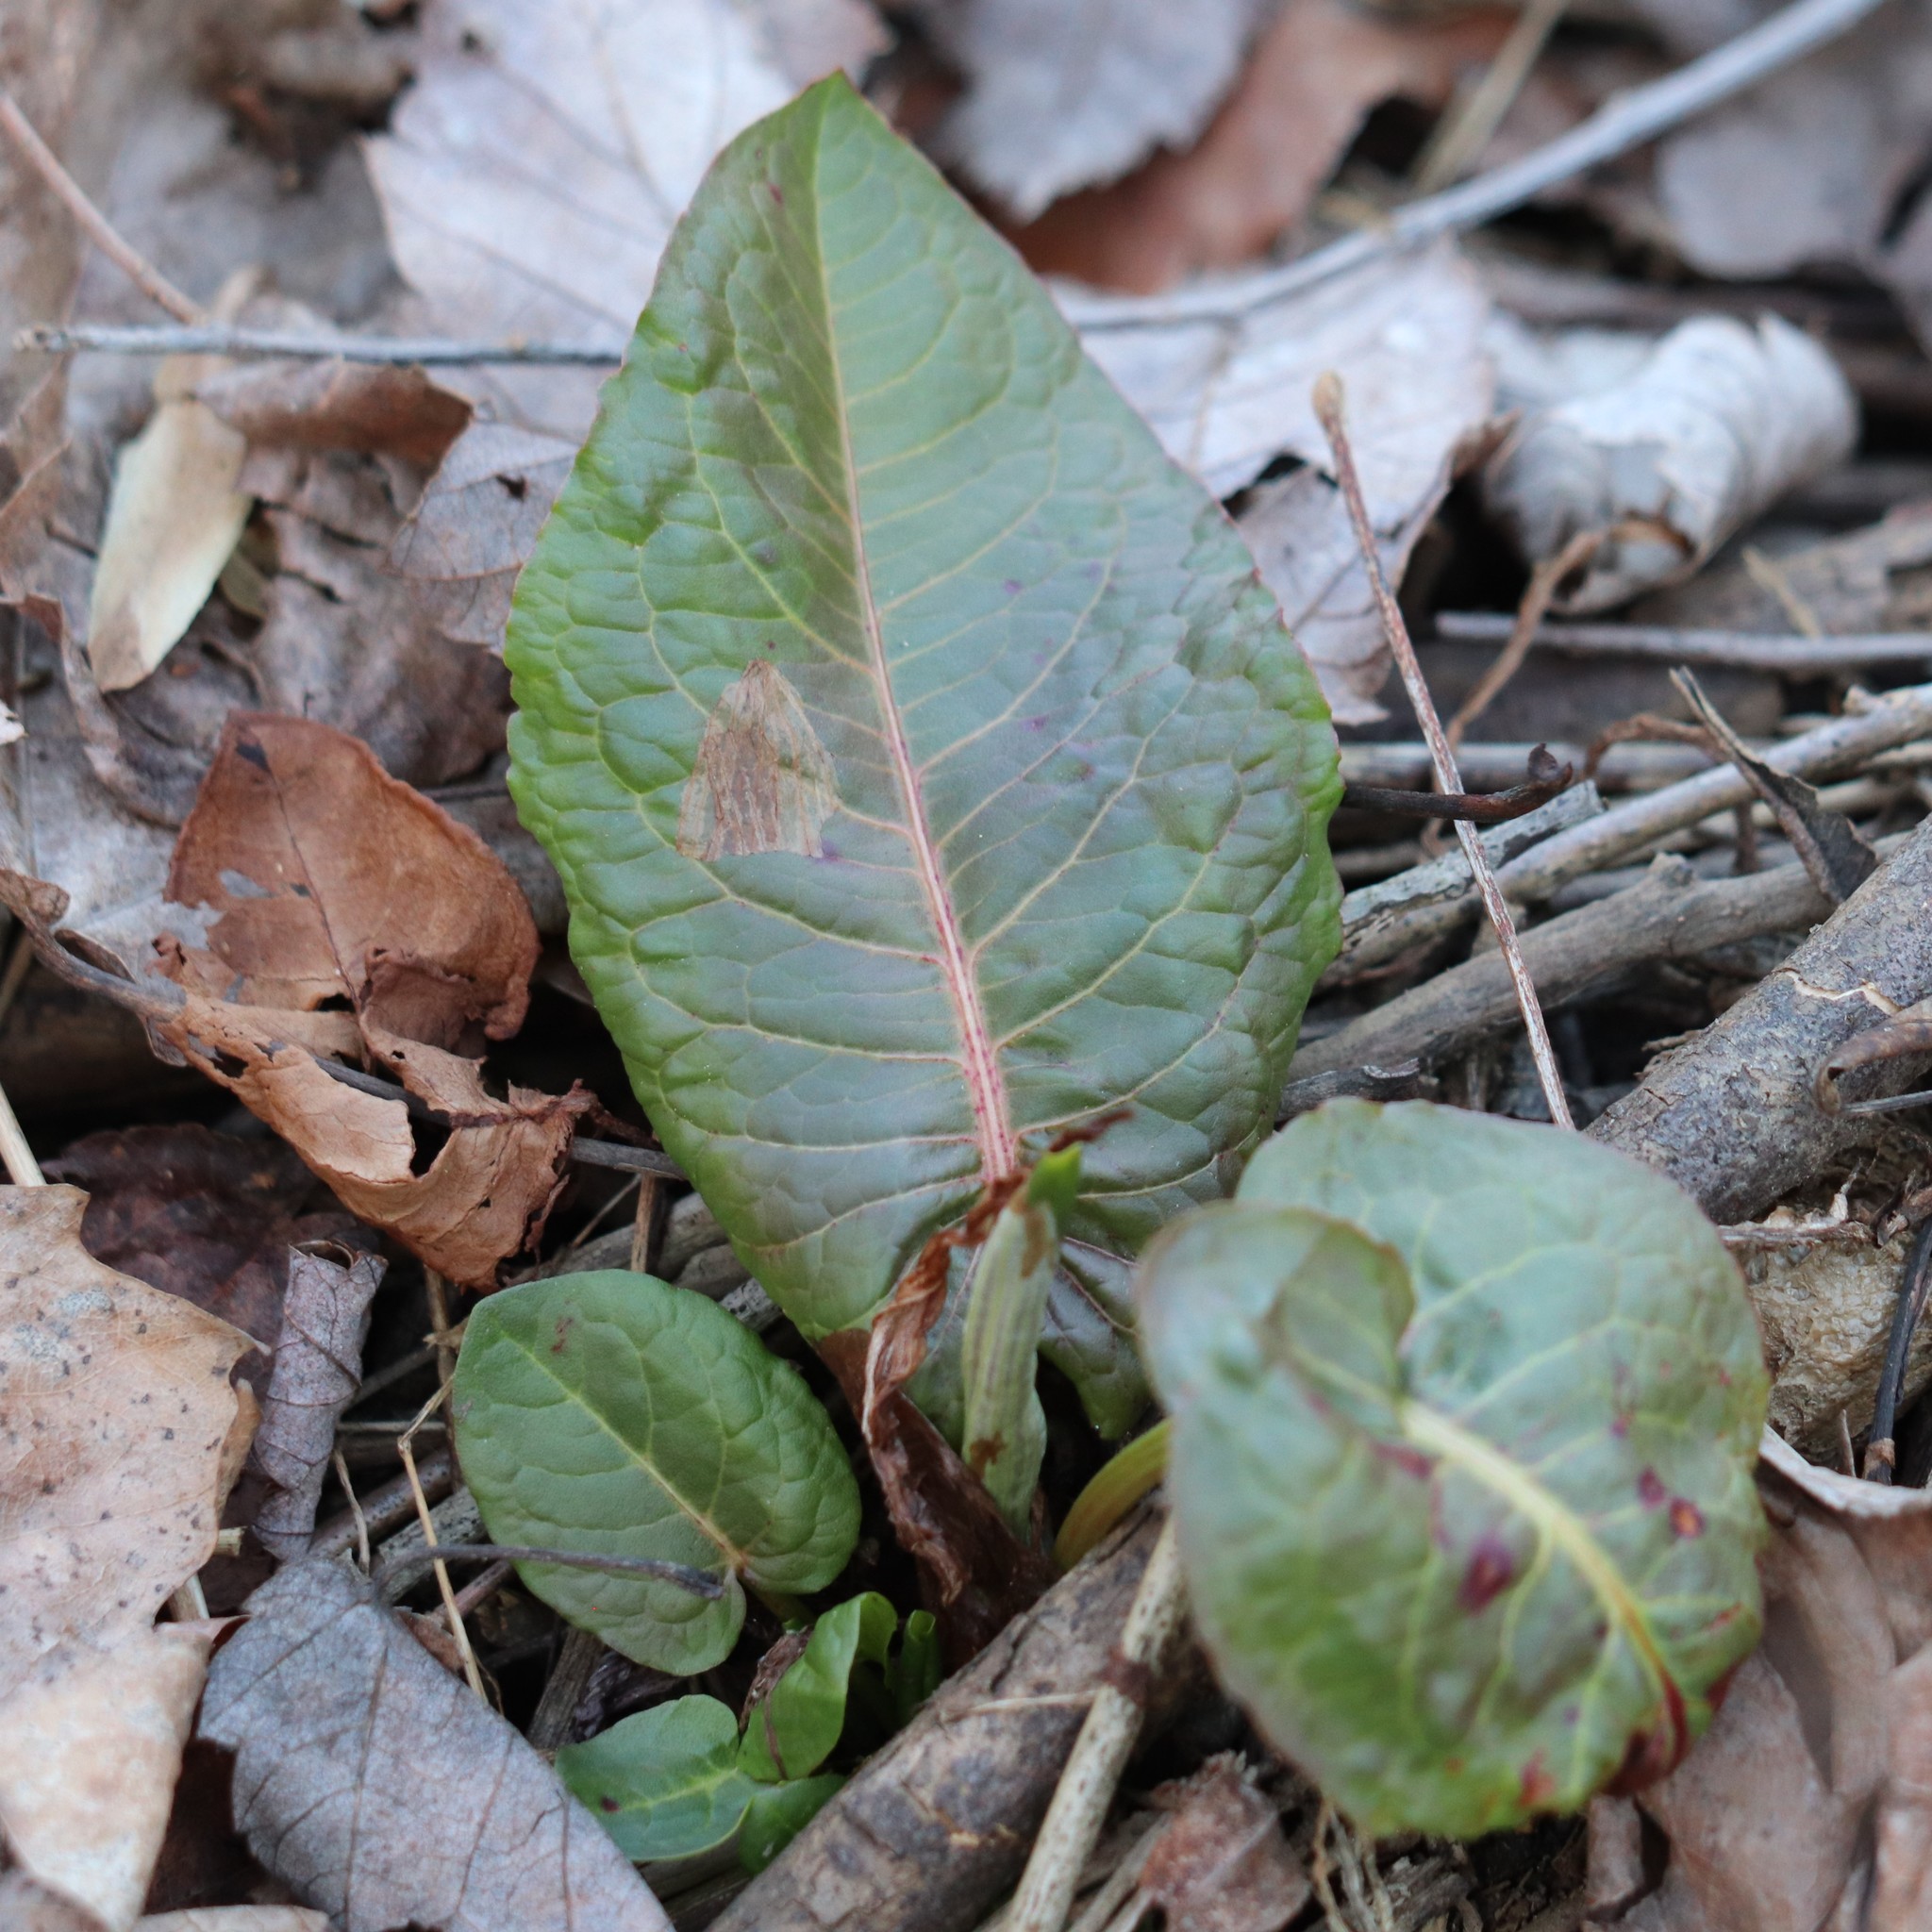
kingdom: Plantae
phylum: Tracheophyta
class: Magnoliopsida
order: Caryophyllales
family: Polygonaceae
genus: Rumex
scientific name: Rumex obtusifolius
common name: Bitter dock
